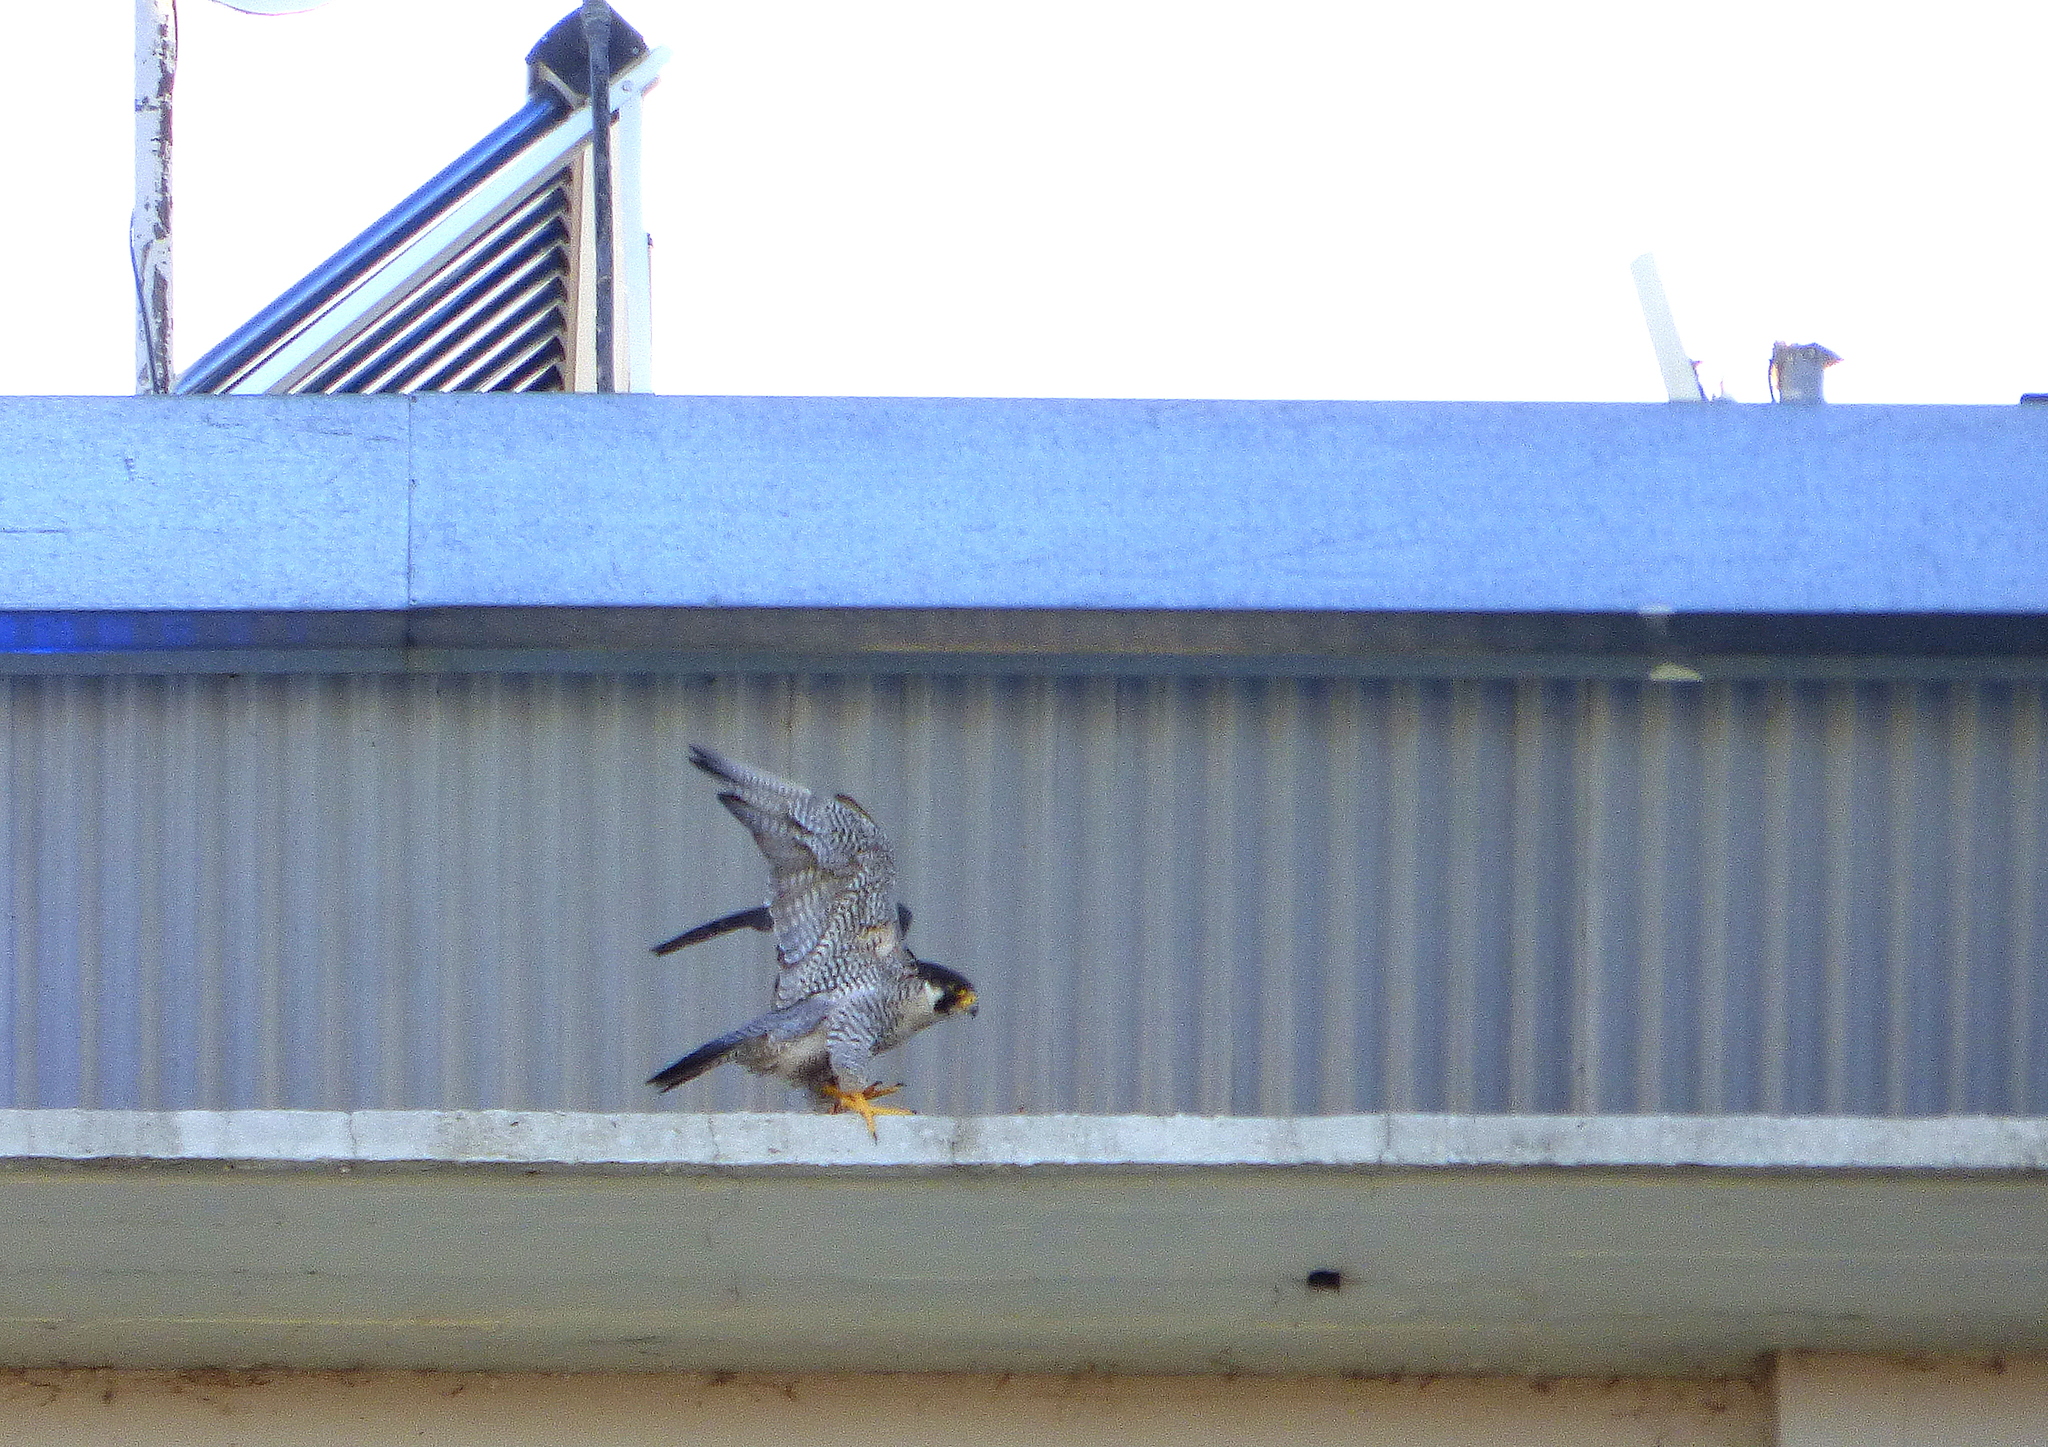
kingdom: Animalia
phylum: Chordata
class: Aves
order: Falconiformes
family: Falconidae
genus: Falco
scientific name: Falco peregrinus
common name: Peregrine falcon
